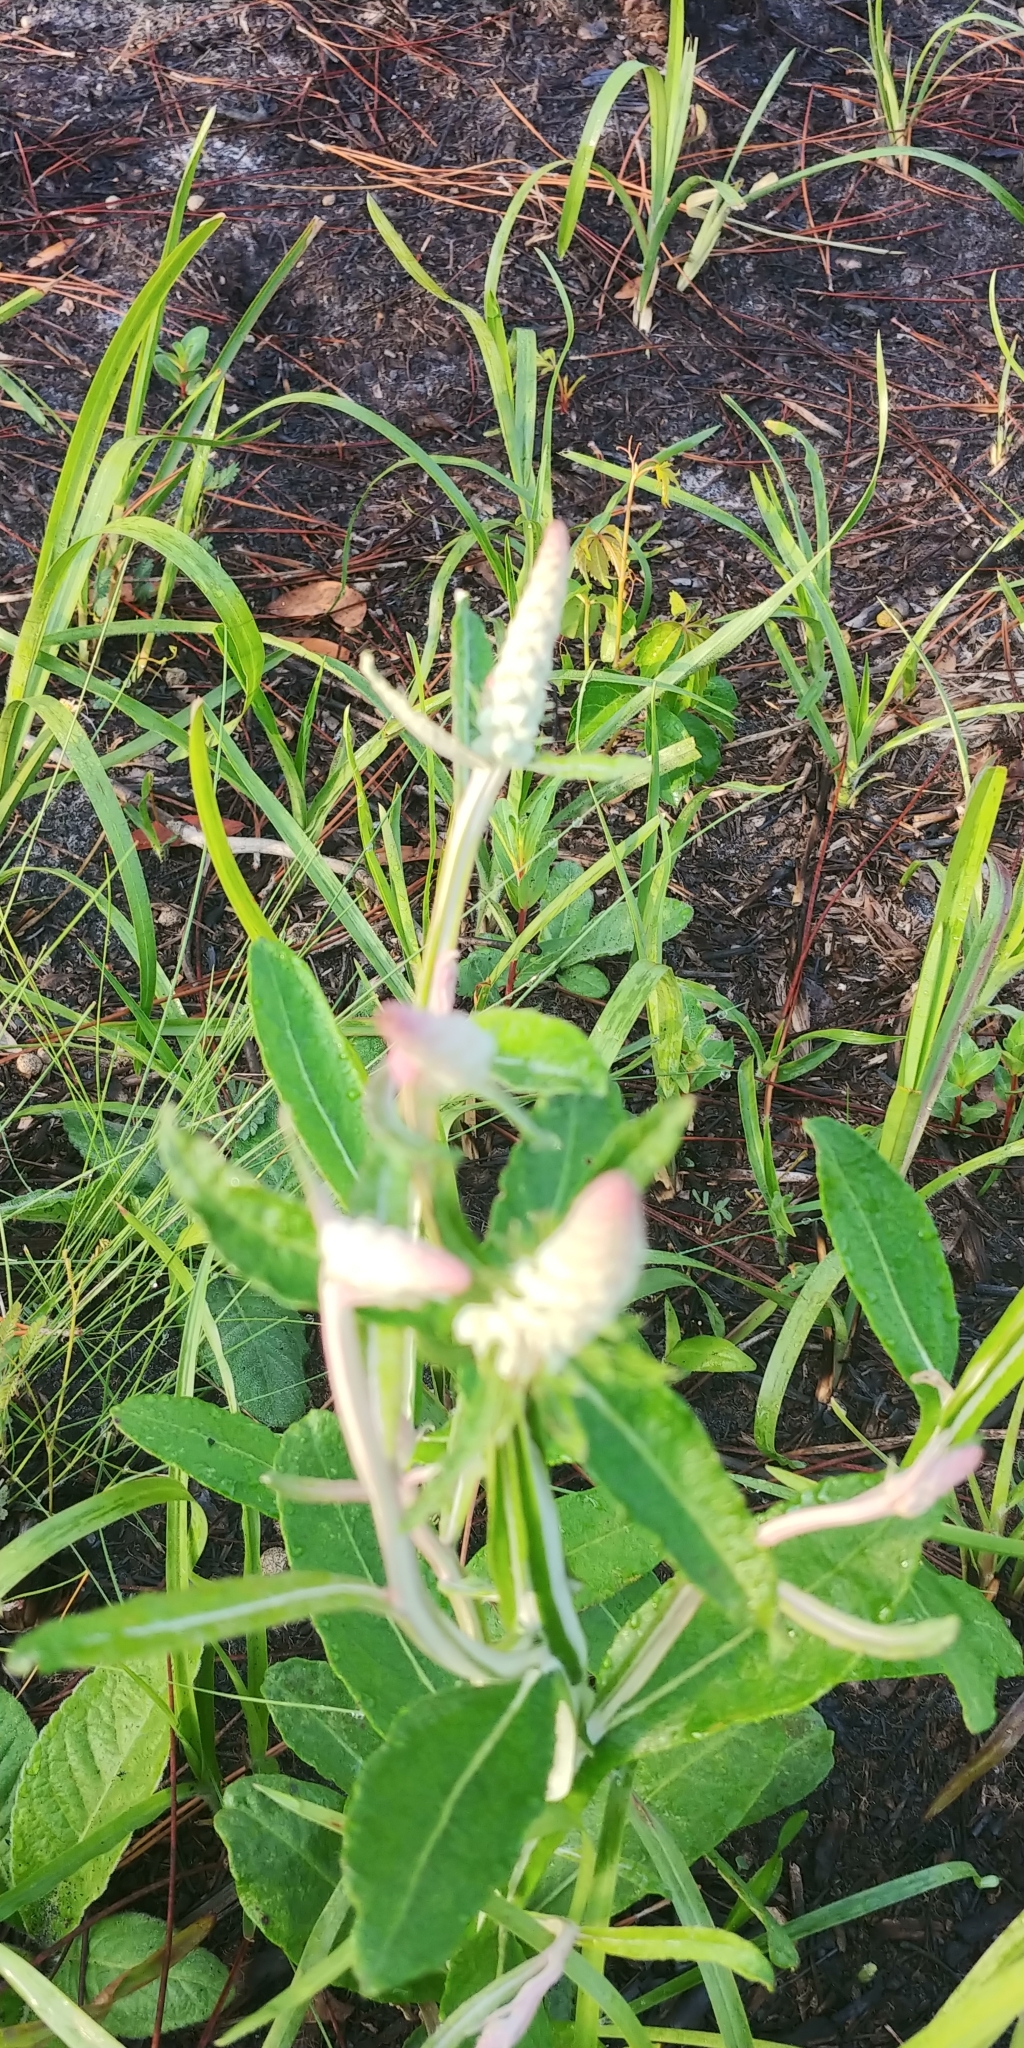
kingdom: Plantae
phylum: Tracheophyta
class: Magnoliopsida
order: Asterales
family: Asteraceae
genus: Pterocaulon
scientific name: Pterocaulon pycnostachyum
